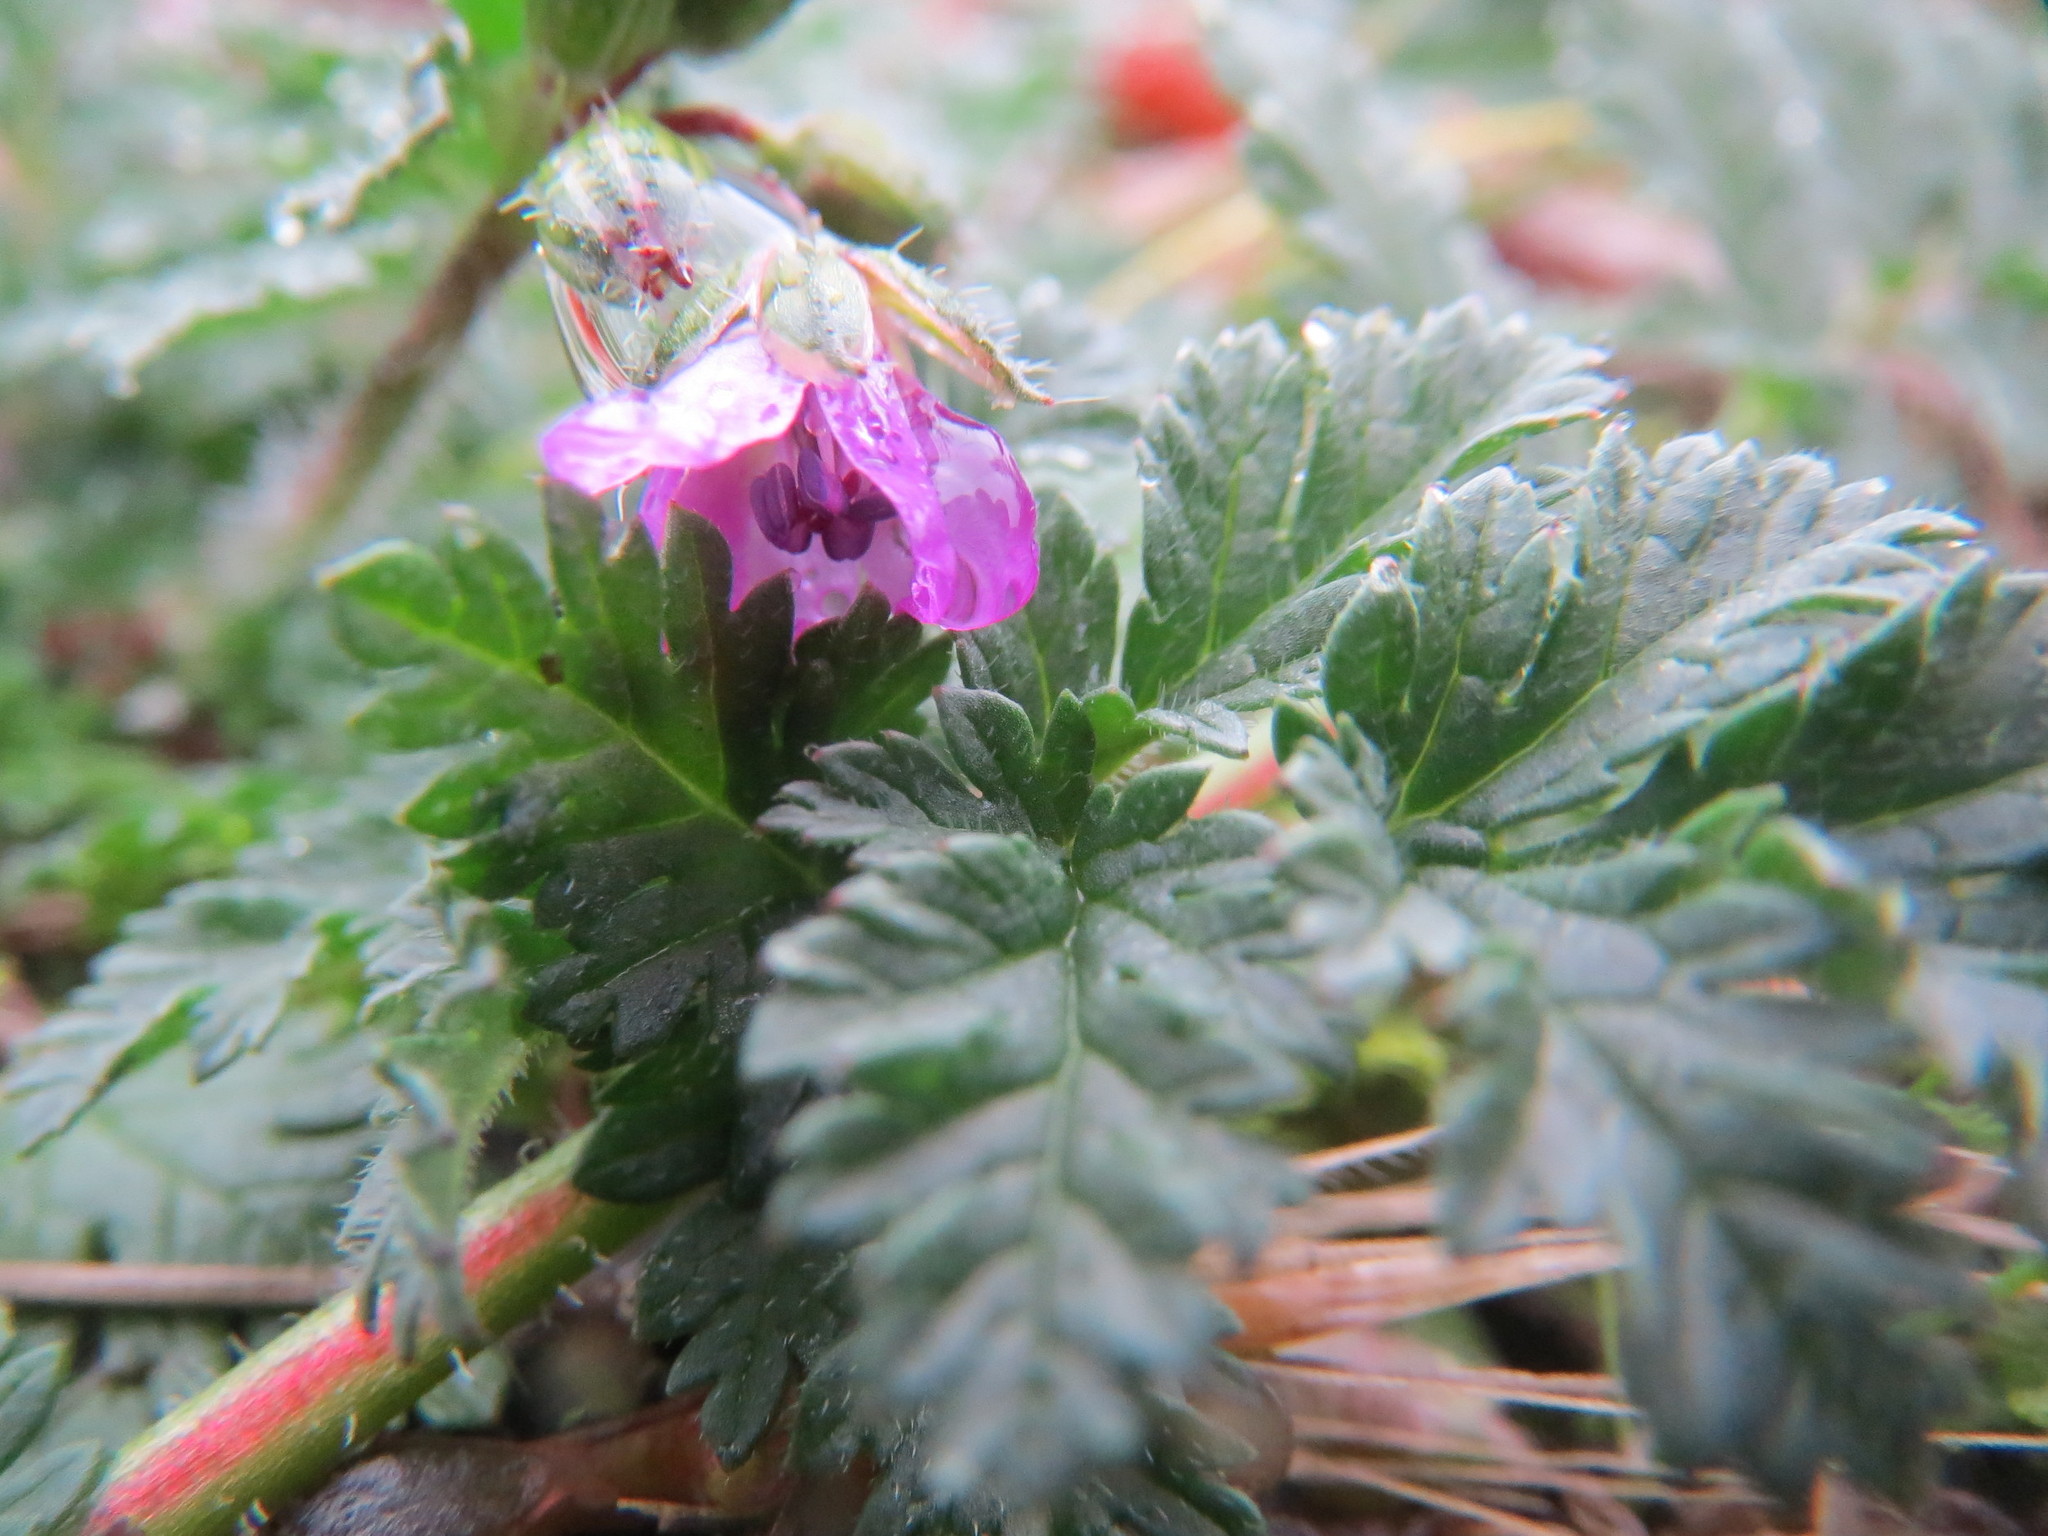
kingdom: Plantae
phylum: Tracheophyta
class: Magnoliopsida
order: Geraniales
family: Geraniaceae
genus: Erodium
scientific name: Erodium cicutarium
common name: Common stork's-bill
